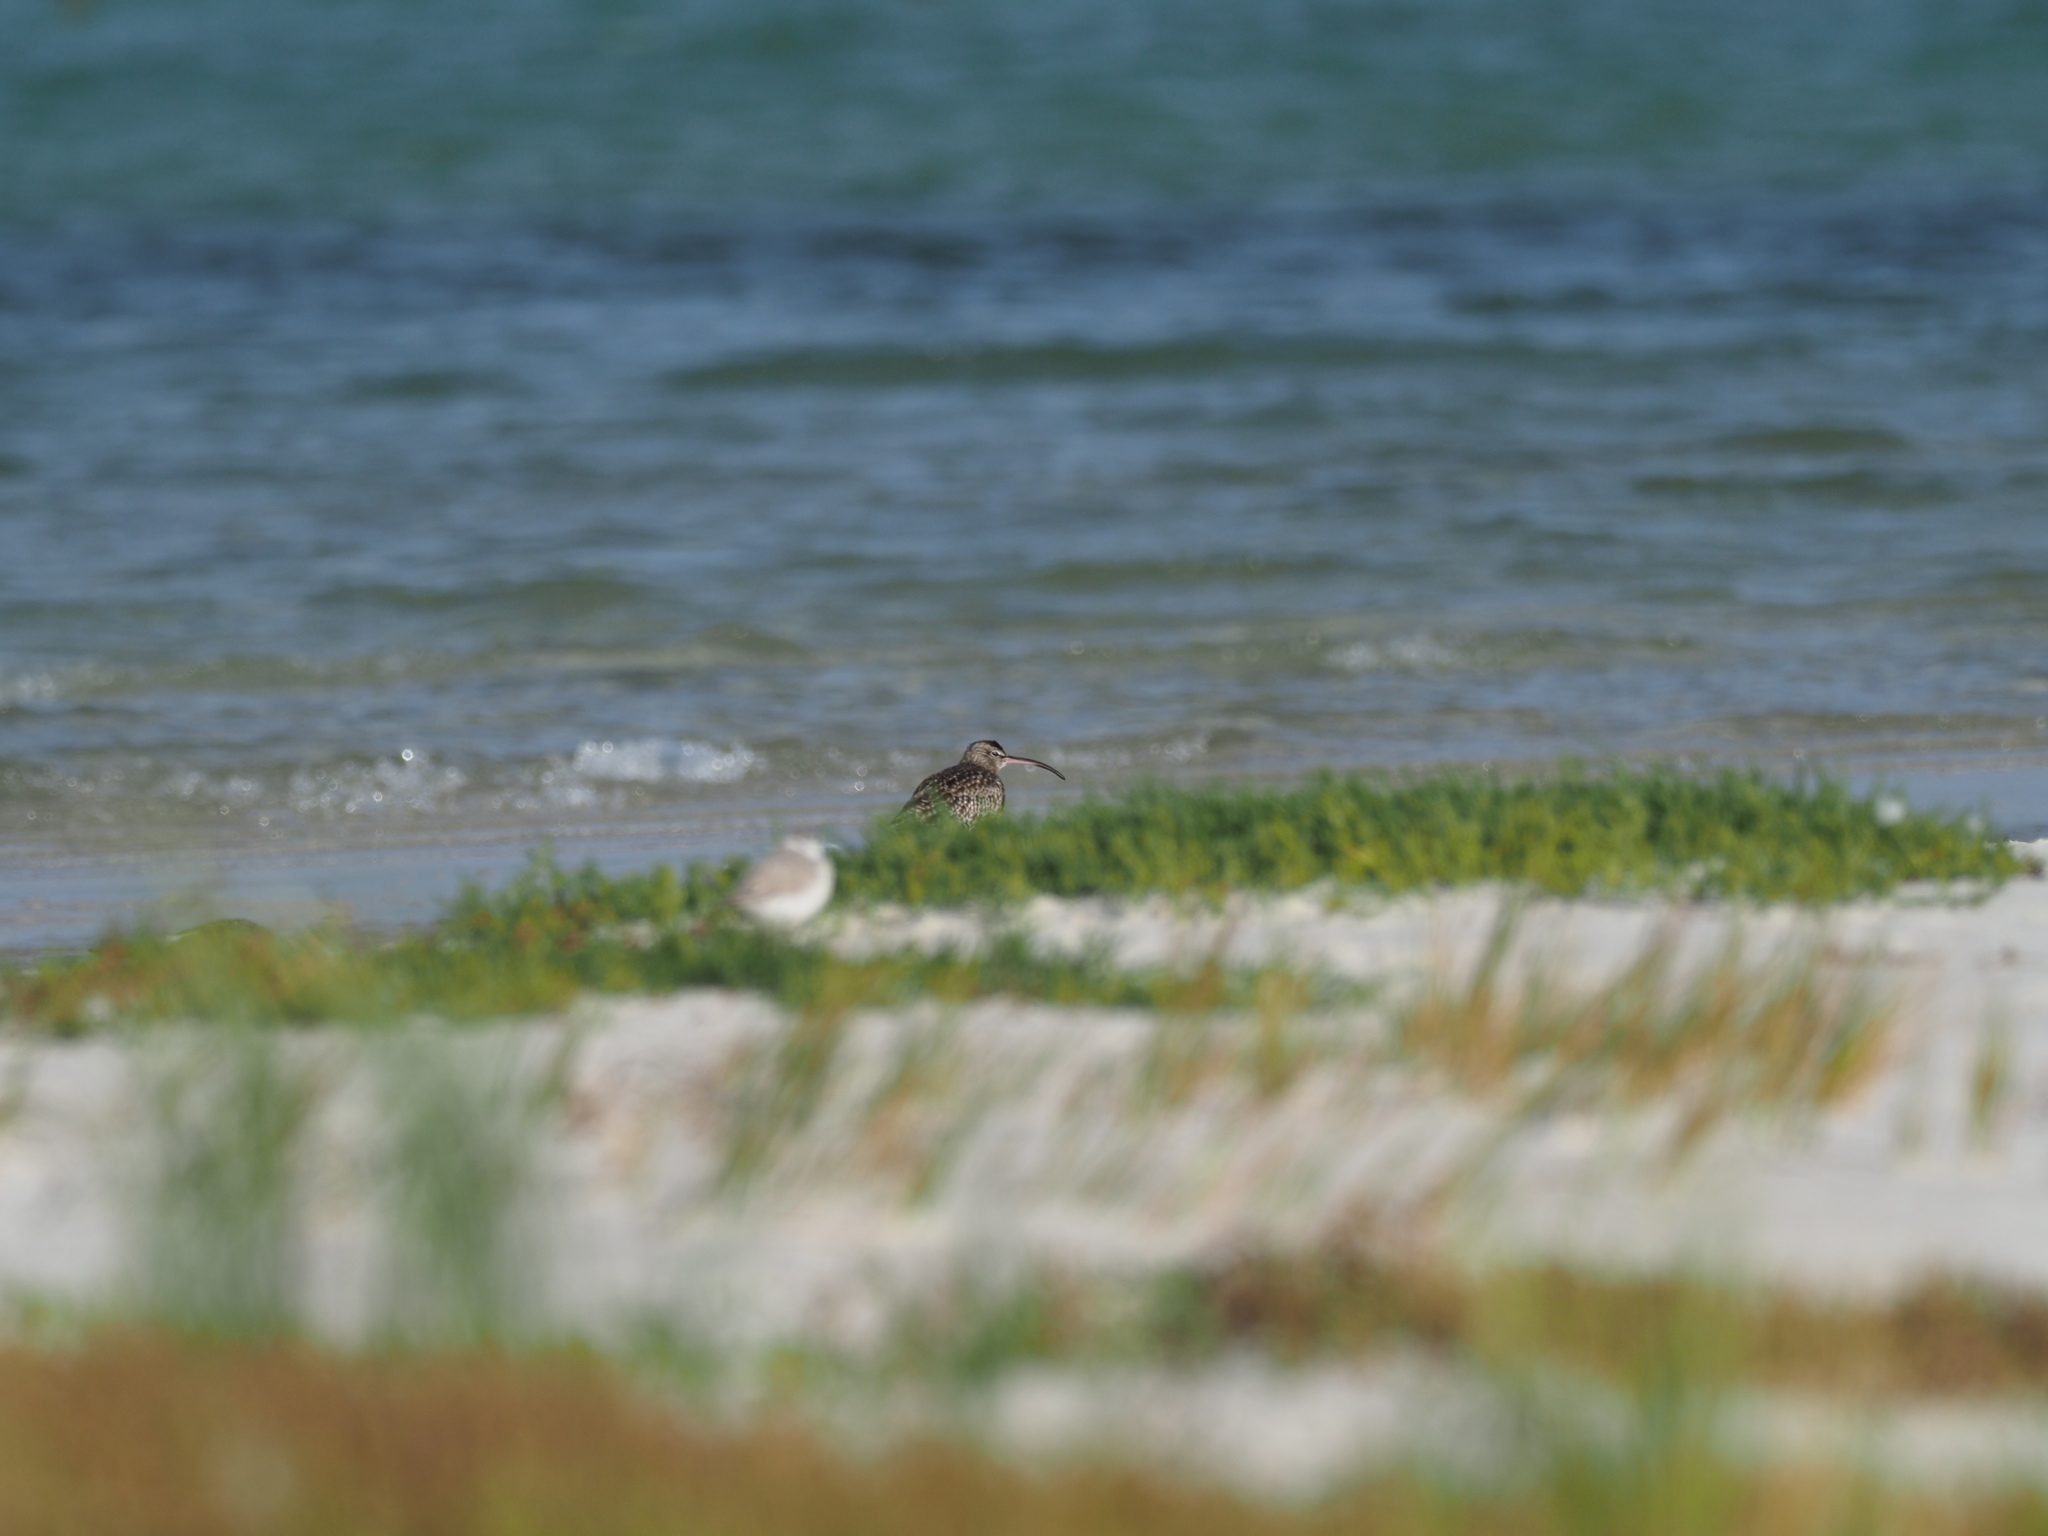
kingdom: Animalia
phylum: Chordata
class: Aves
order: Charadriiformes
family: Scolopacidae
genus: Numenius
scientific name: Numenius phaeopus
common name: Whimbrel
